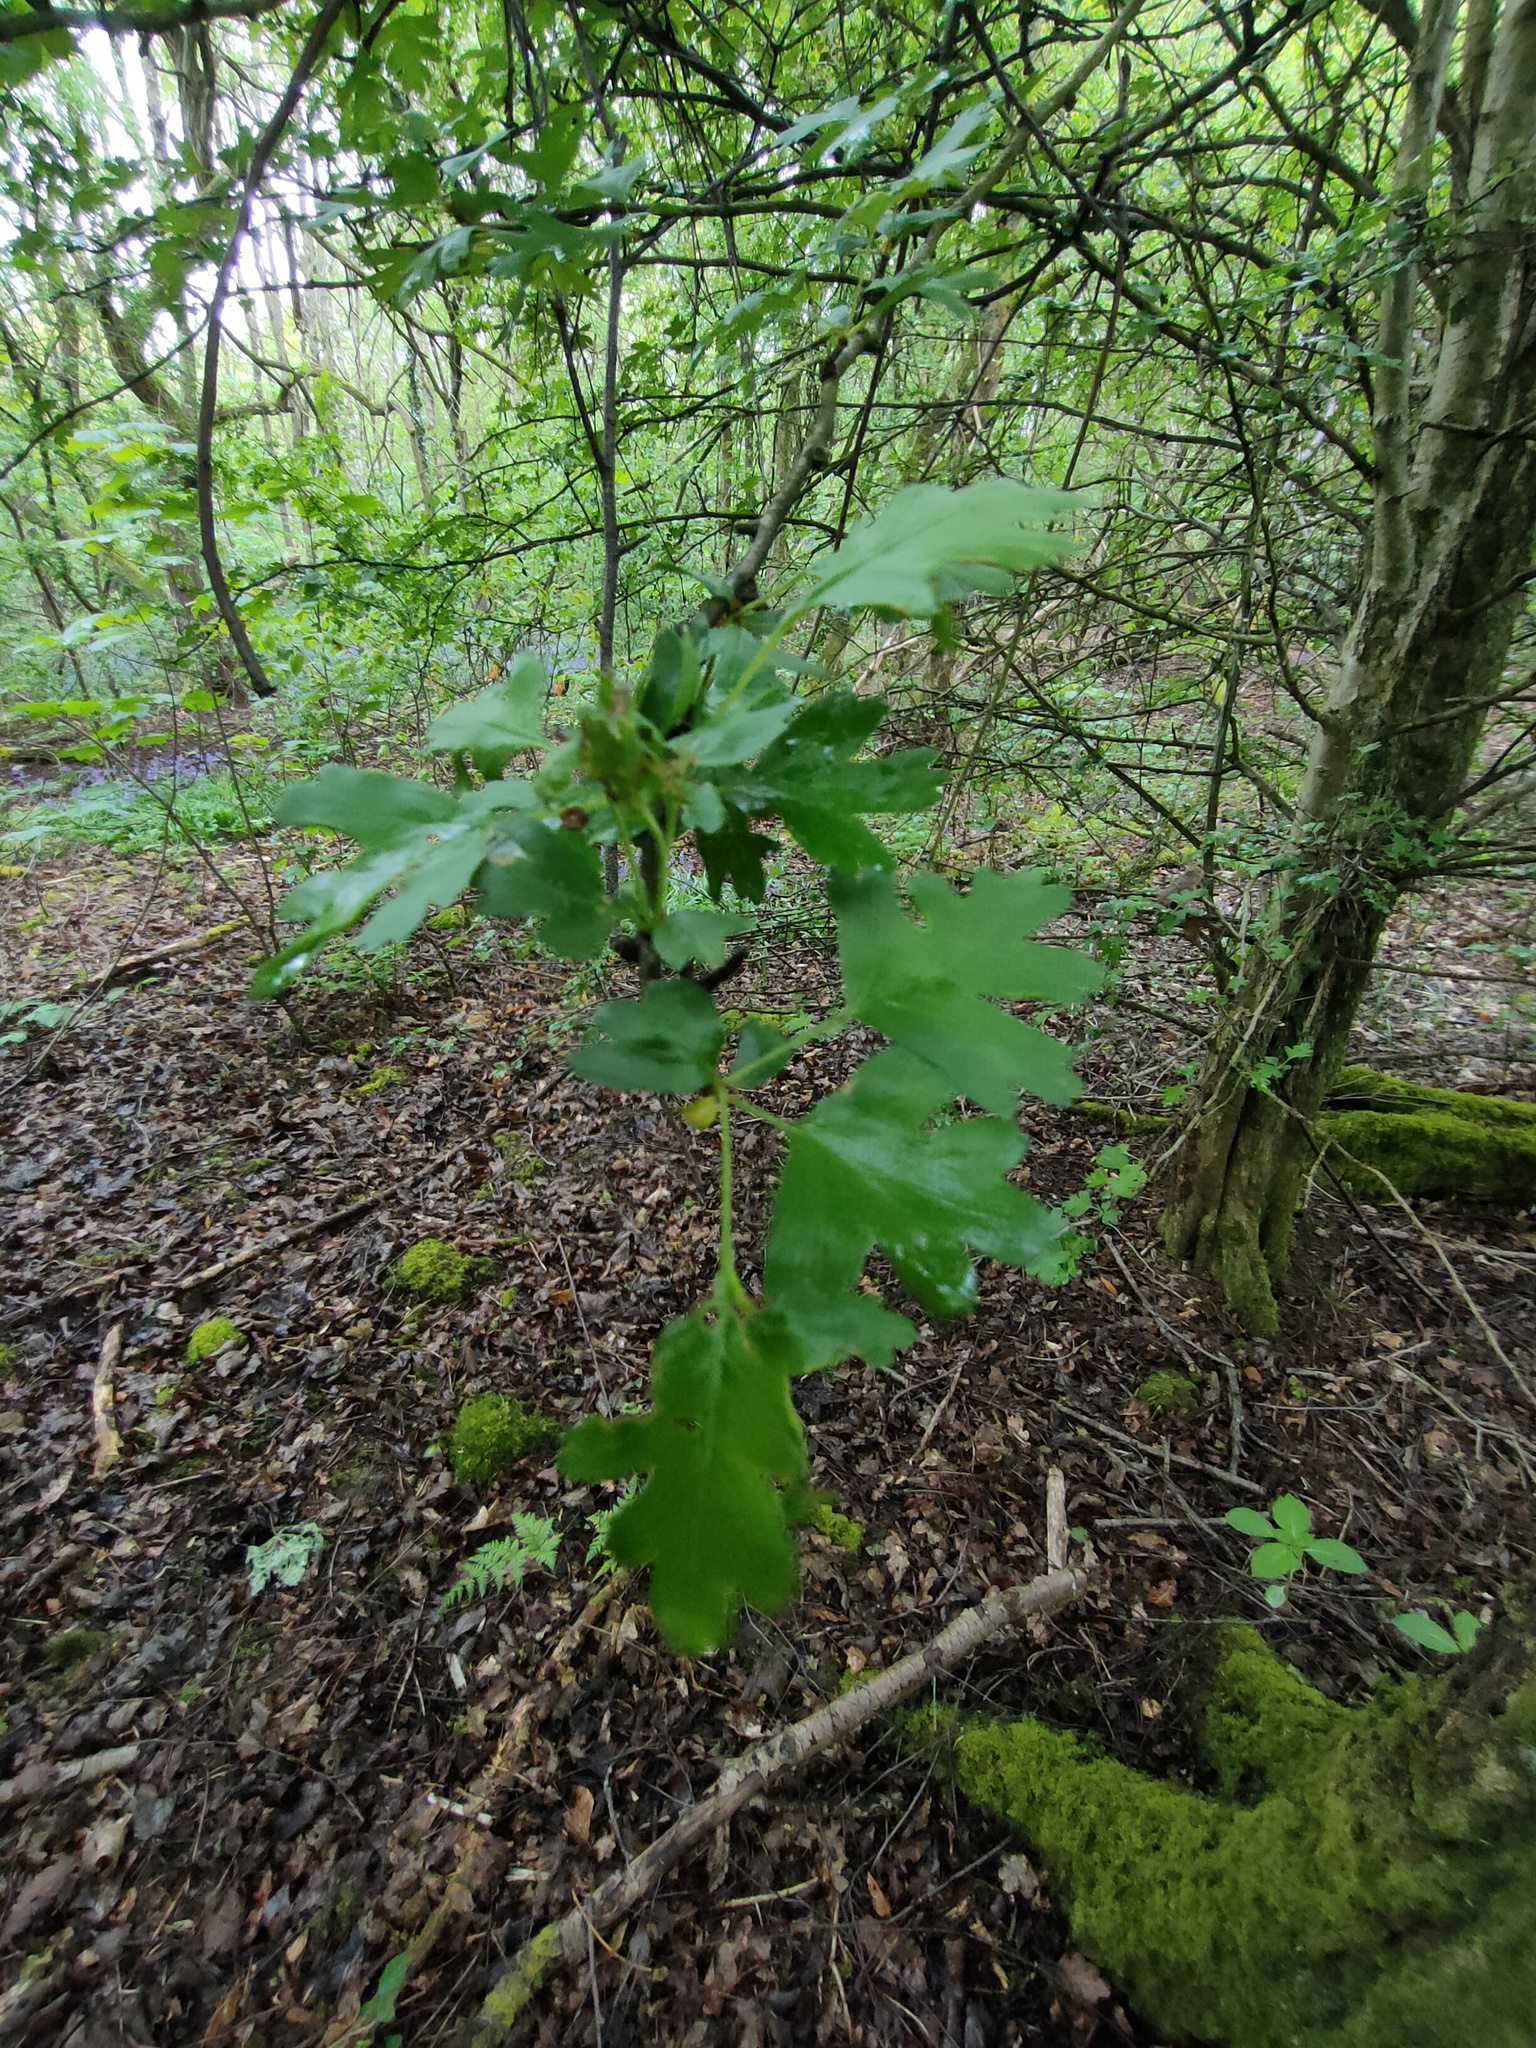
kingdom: Plantae
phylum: Tracheophyta
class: Magnoliopsida
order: Rosales
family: Rosaceae
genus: Crataegus
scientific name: Crataegus monogyna
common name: Hawthorn
